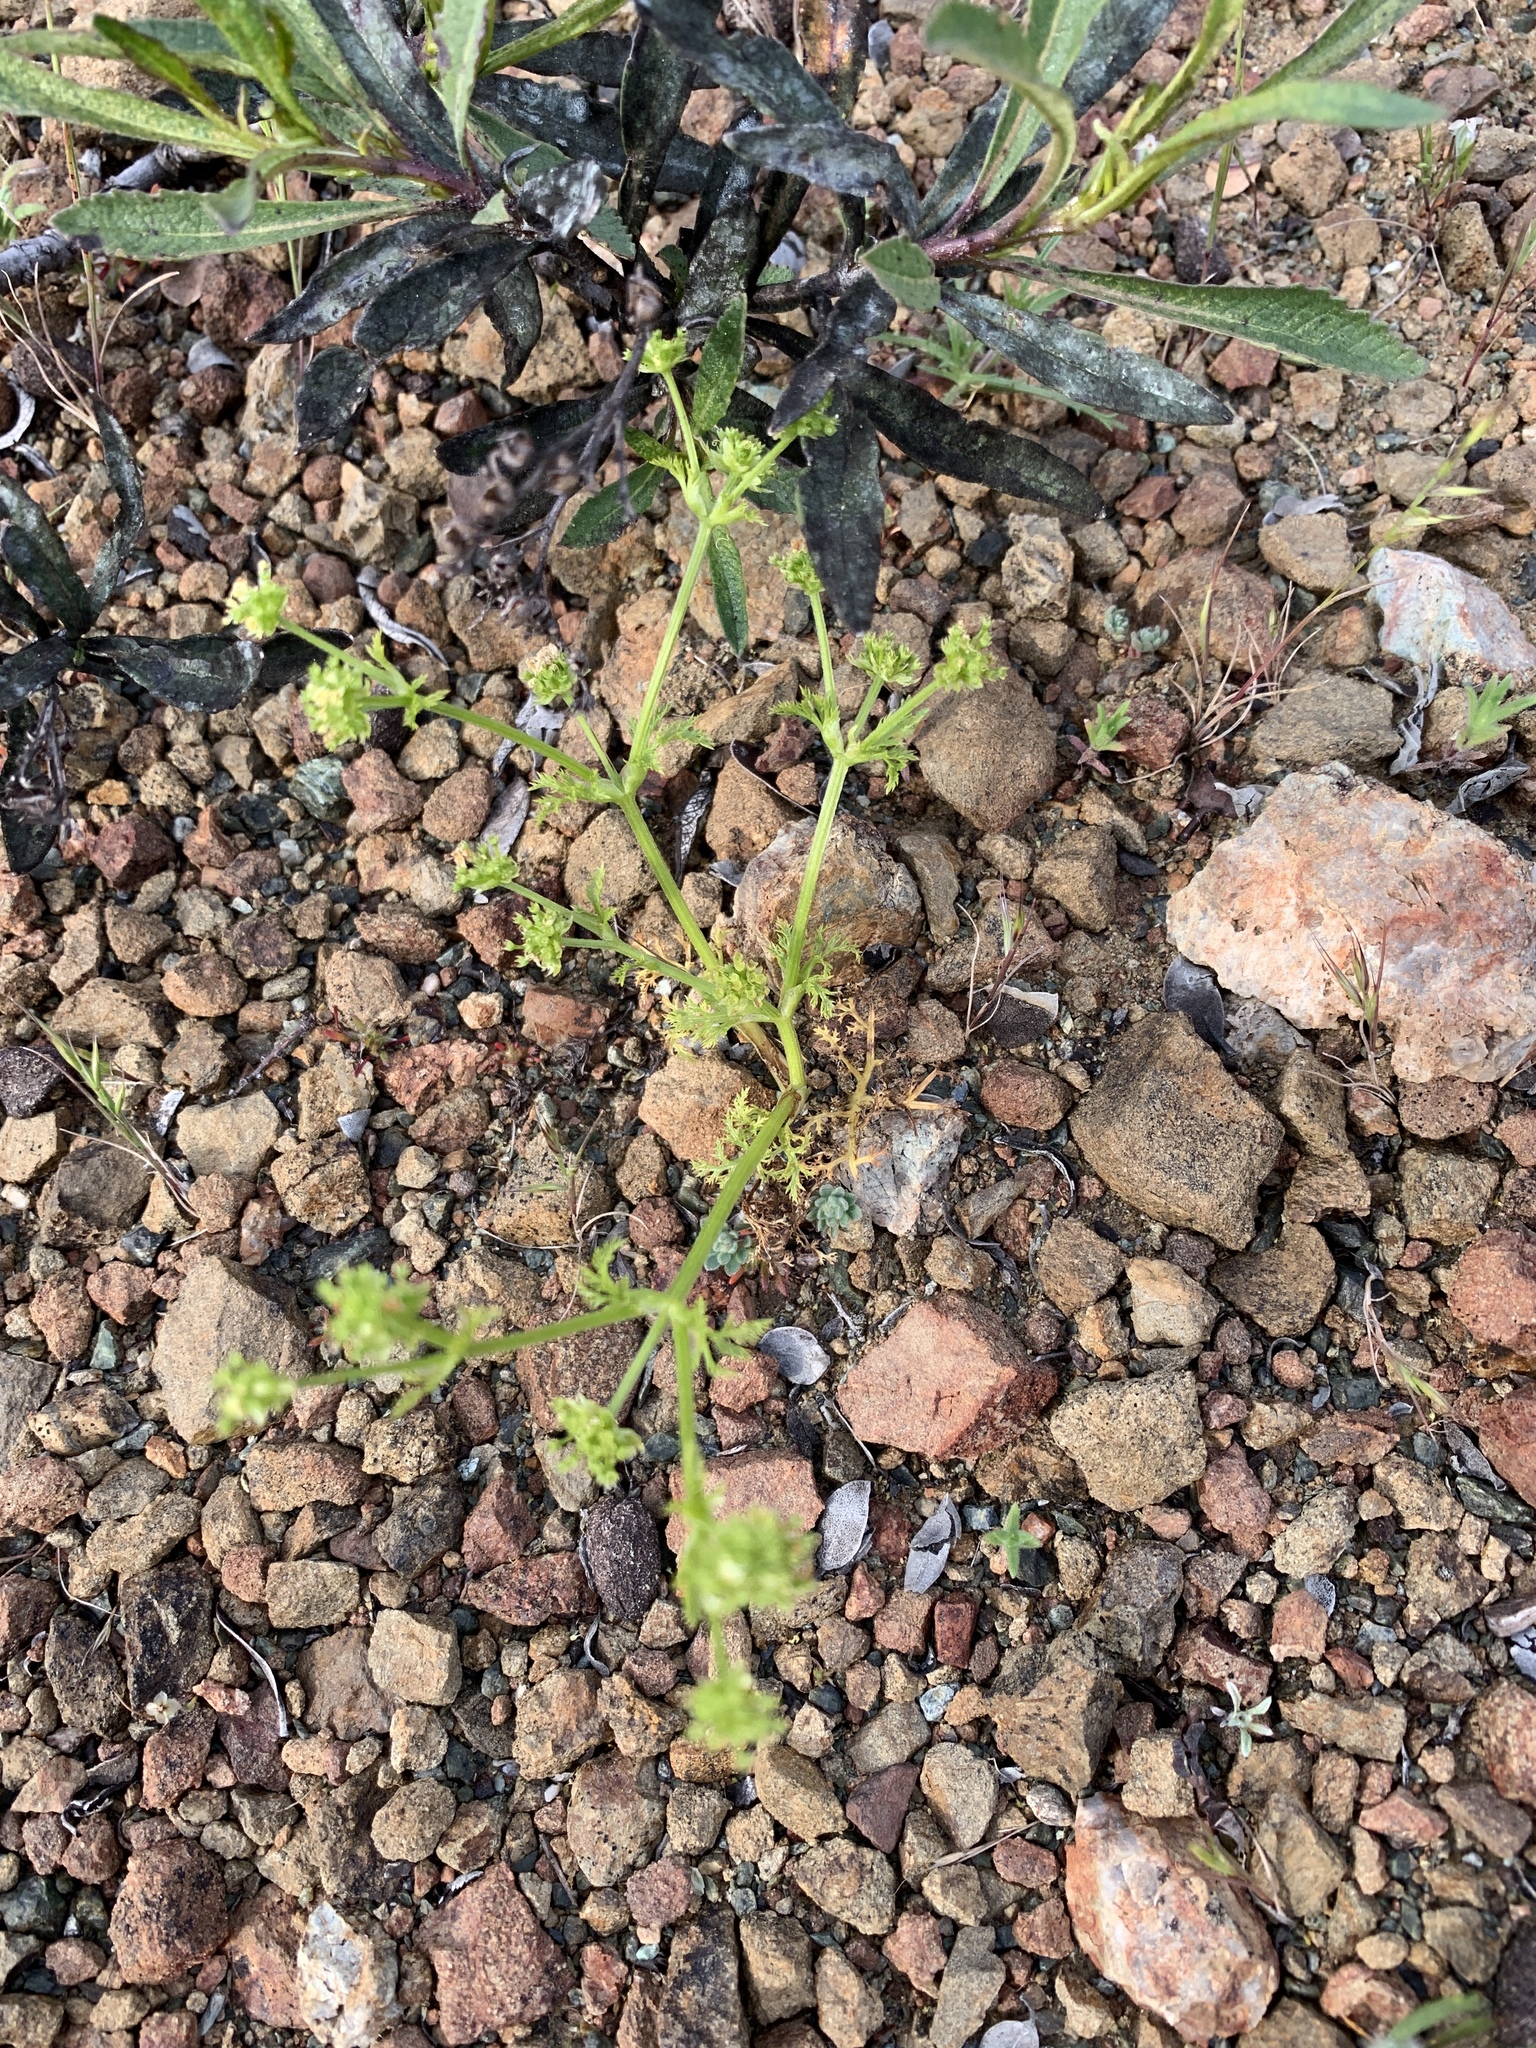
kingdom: Plantae
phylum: Tracheophyta
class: Magnoliopsida
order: Apiales
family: Apiaceae
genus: Sanicula
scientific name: Sanicula tuberosa
